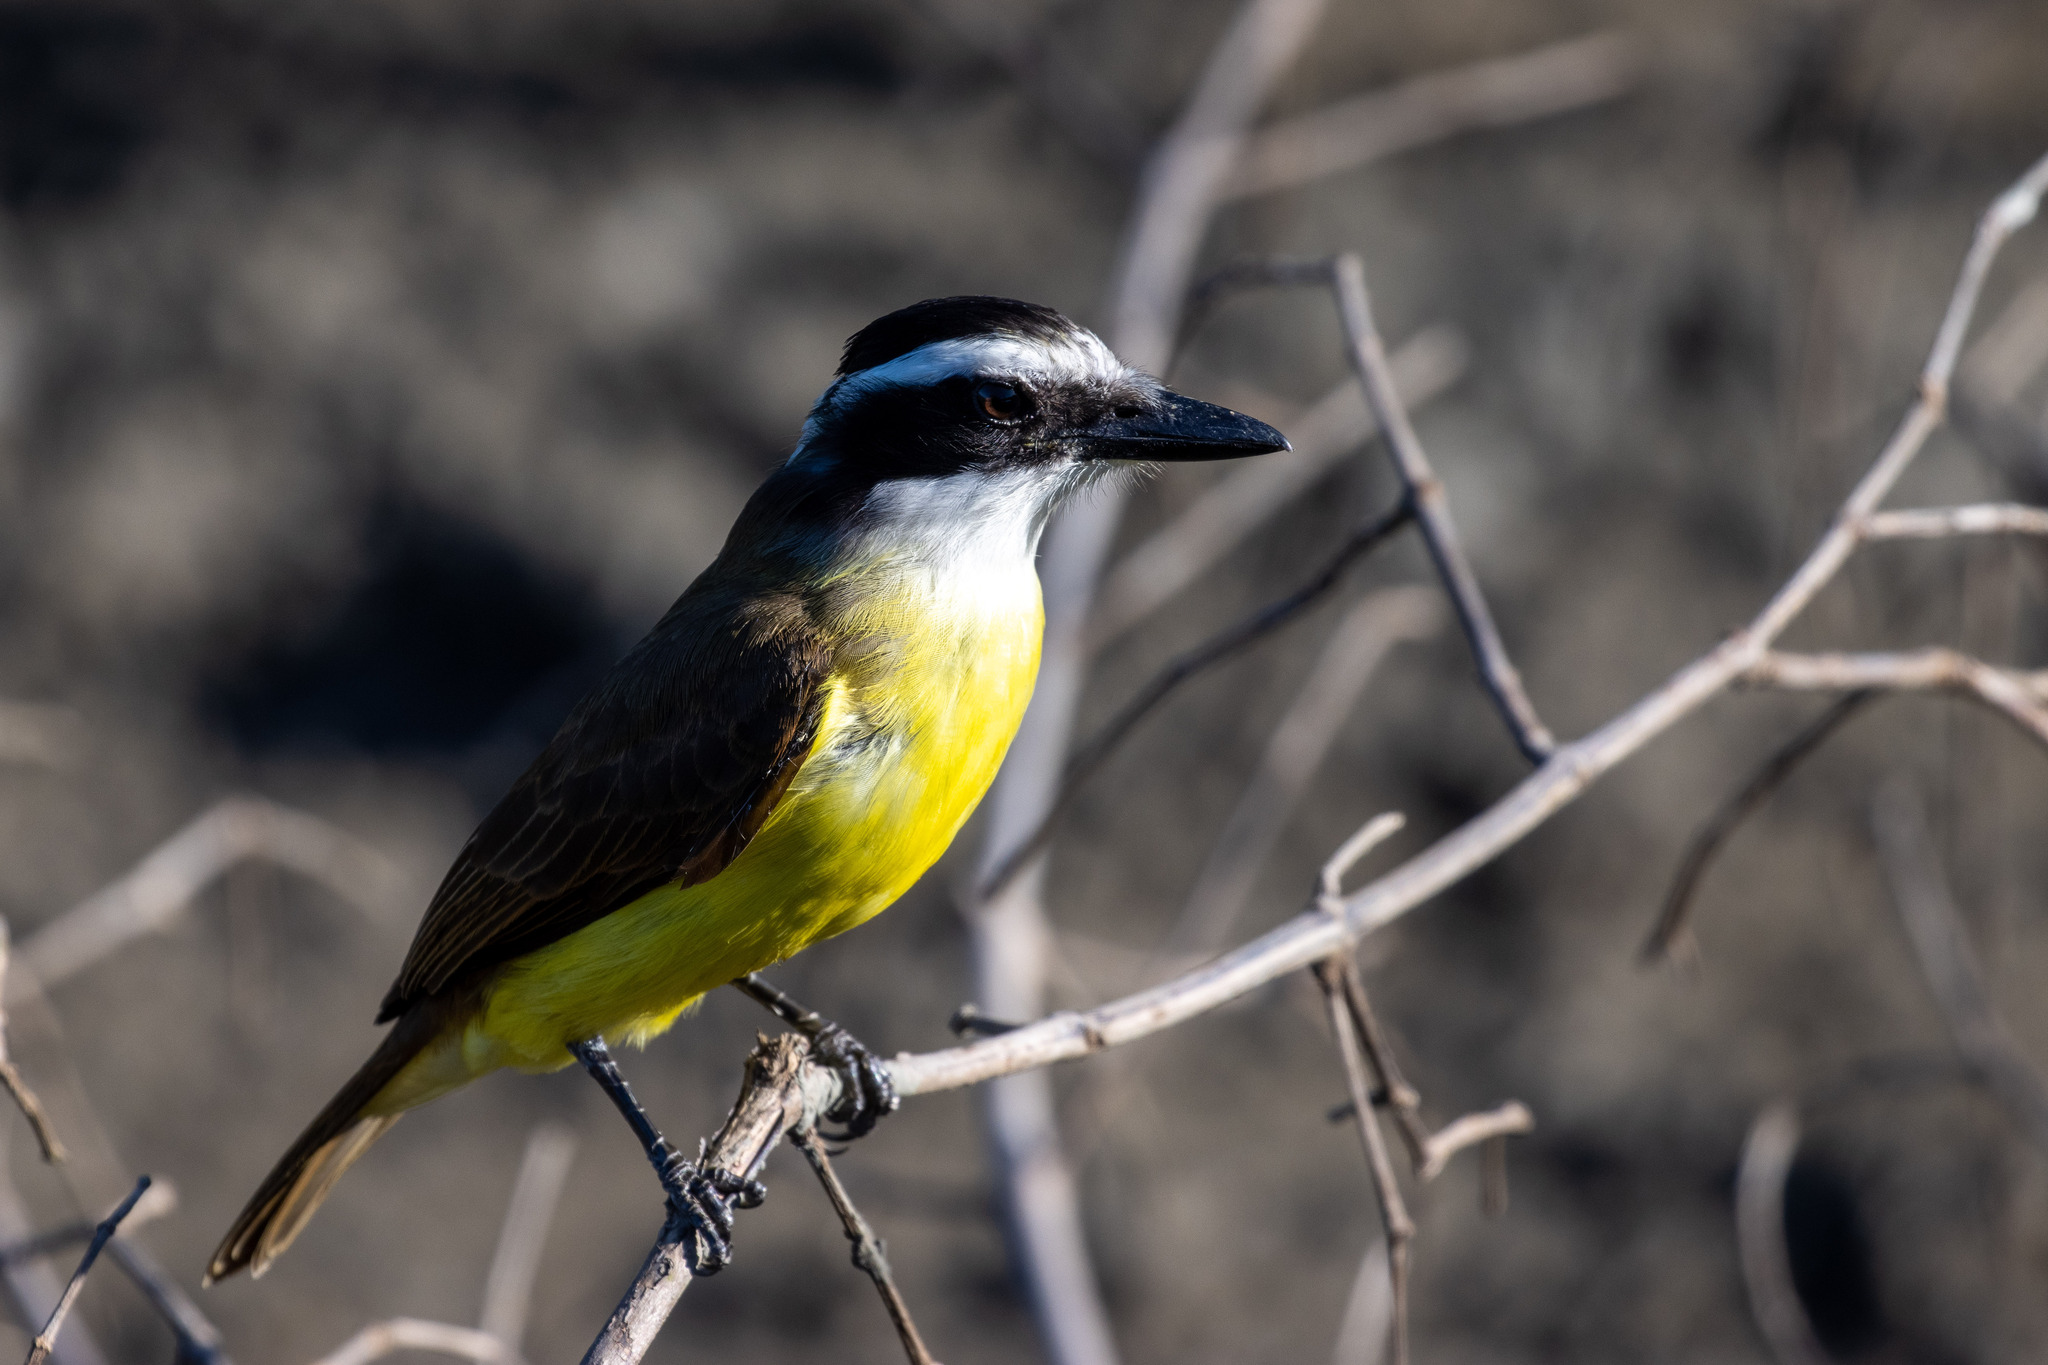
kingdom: Animalia
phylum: Chordata
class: Aves
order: Passeriformes
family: Tyrannidae
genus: Pitangus
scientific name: Pitangus sulphuratus
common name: Great kiskadee
